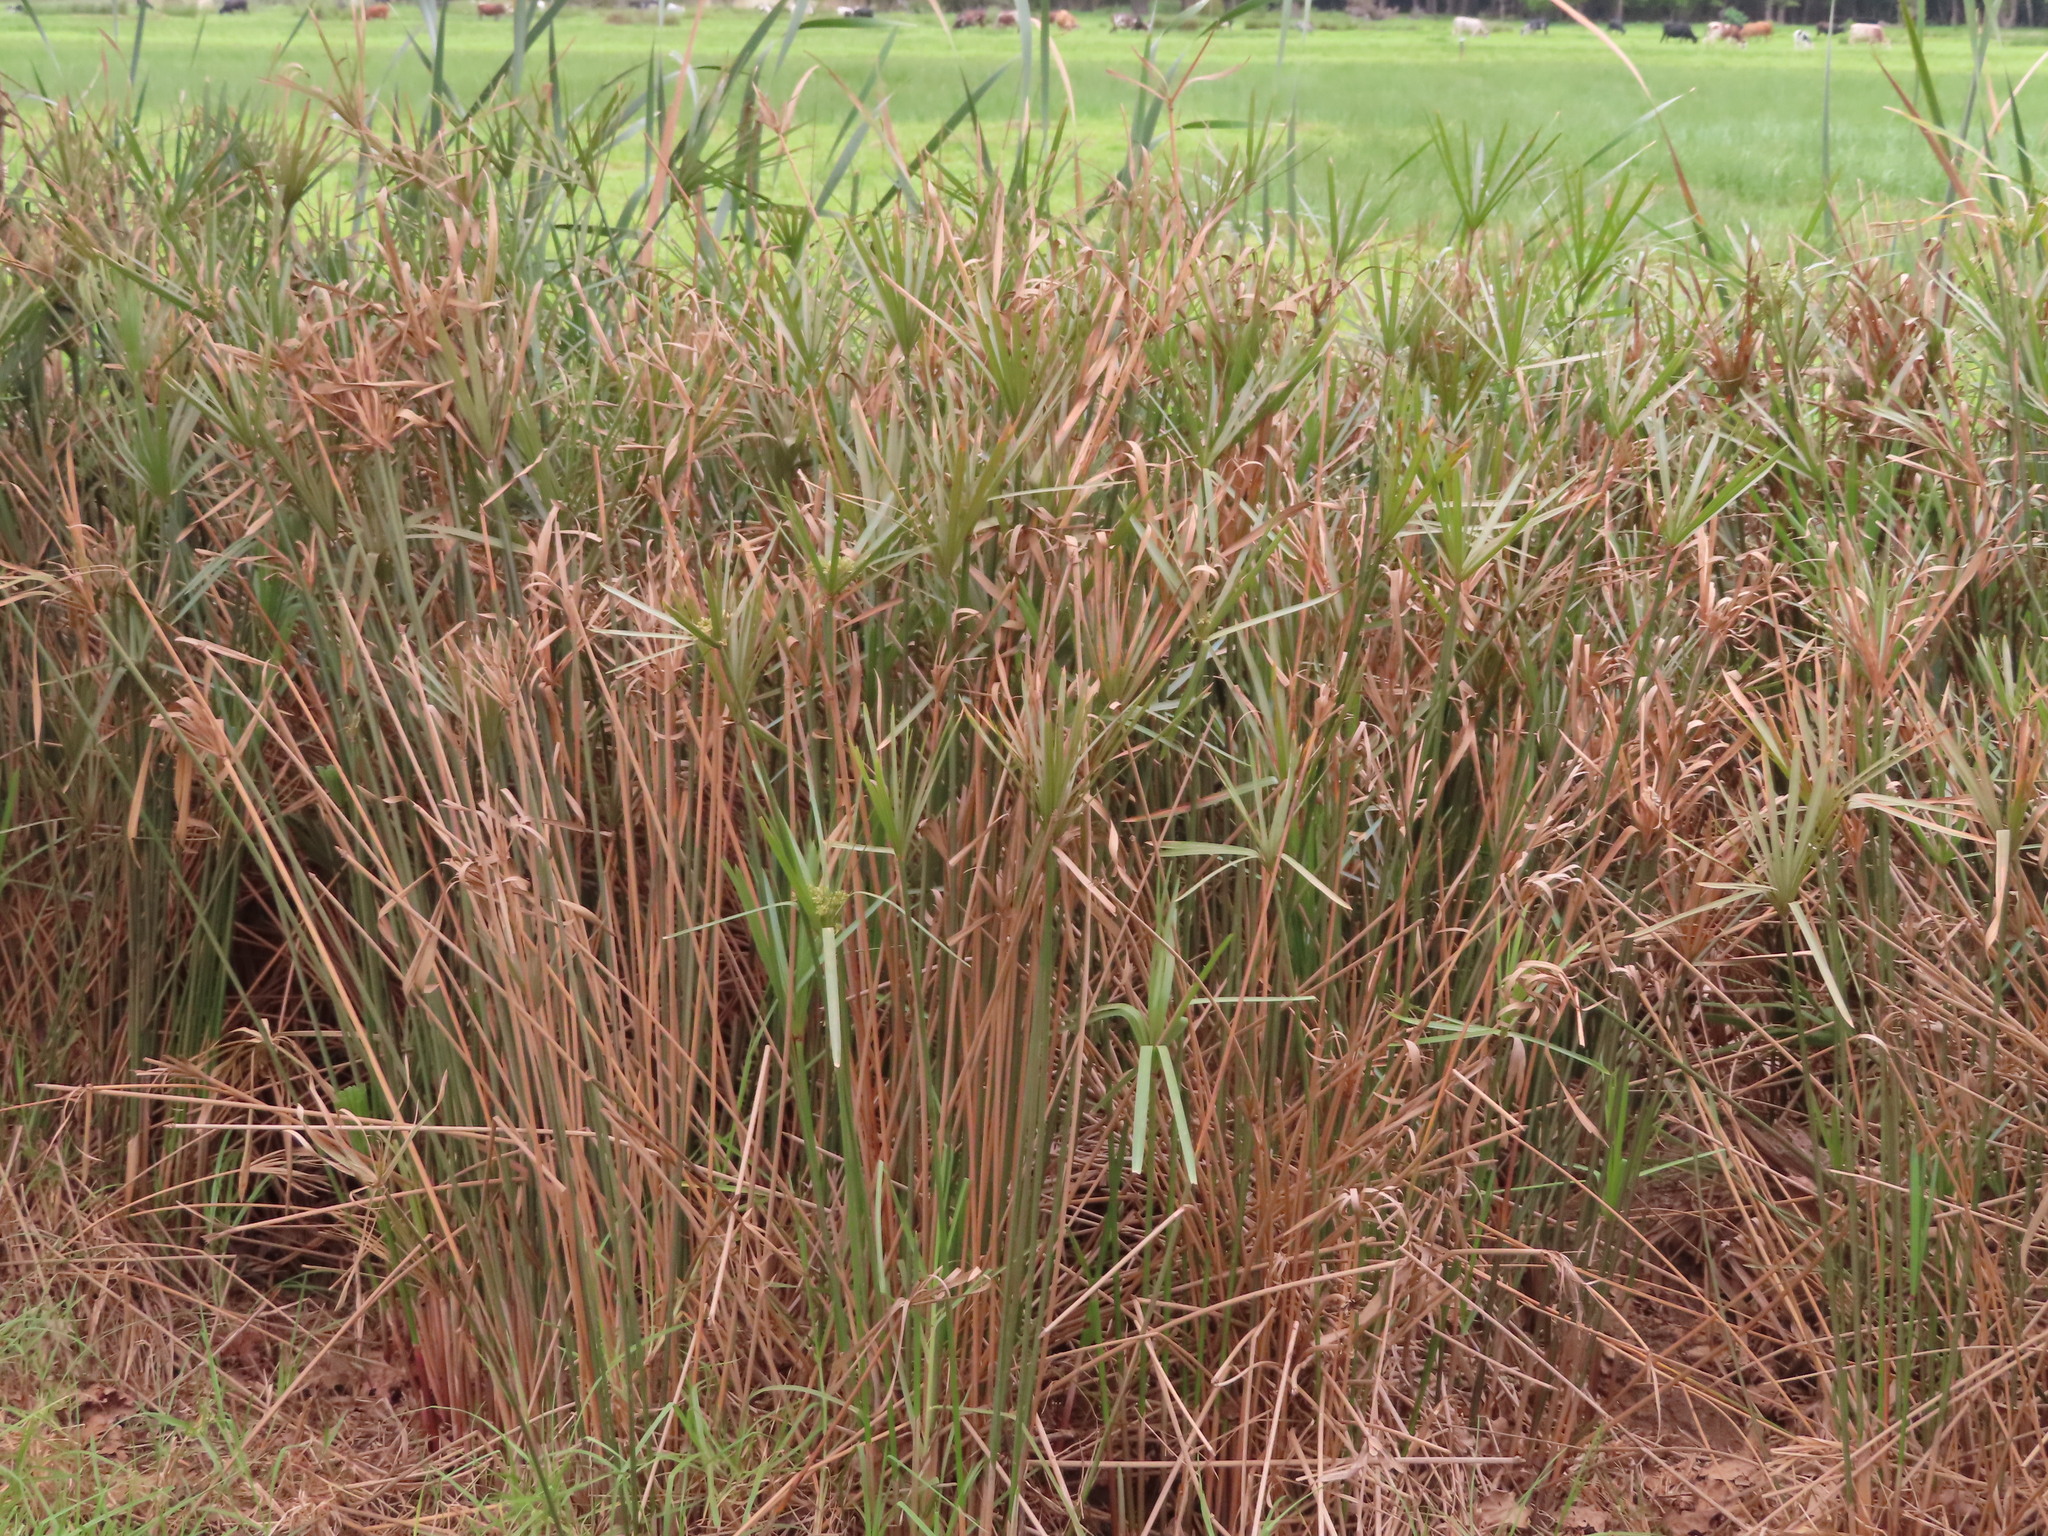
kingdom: Plantae
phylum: Tracheophyta
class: Liliopsida
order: Poales
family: Cyperaceae
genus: Cyperus
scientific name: Cyperus textilis
